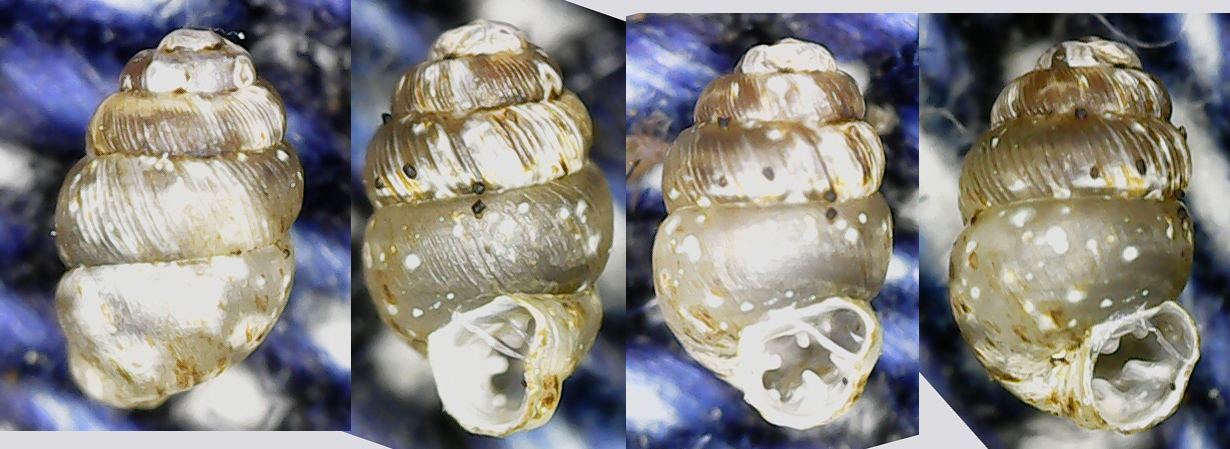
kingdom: Animalia
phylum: Mollusca
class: Gastropoda
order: Stylommatophora
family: Vertiginidae
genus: Vertigo
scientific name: Vertigo substriata
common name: Striated whorl snail
